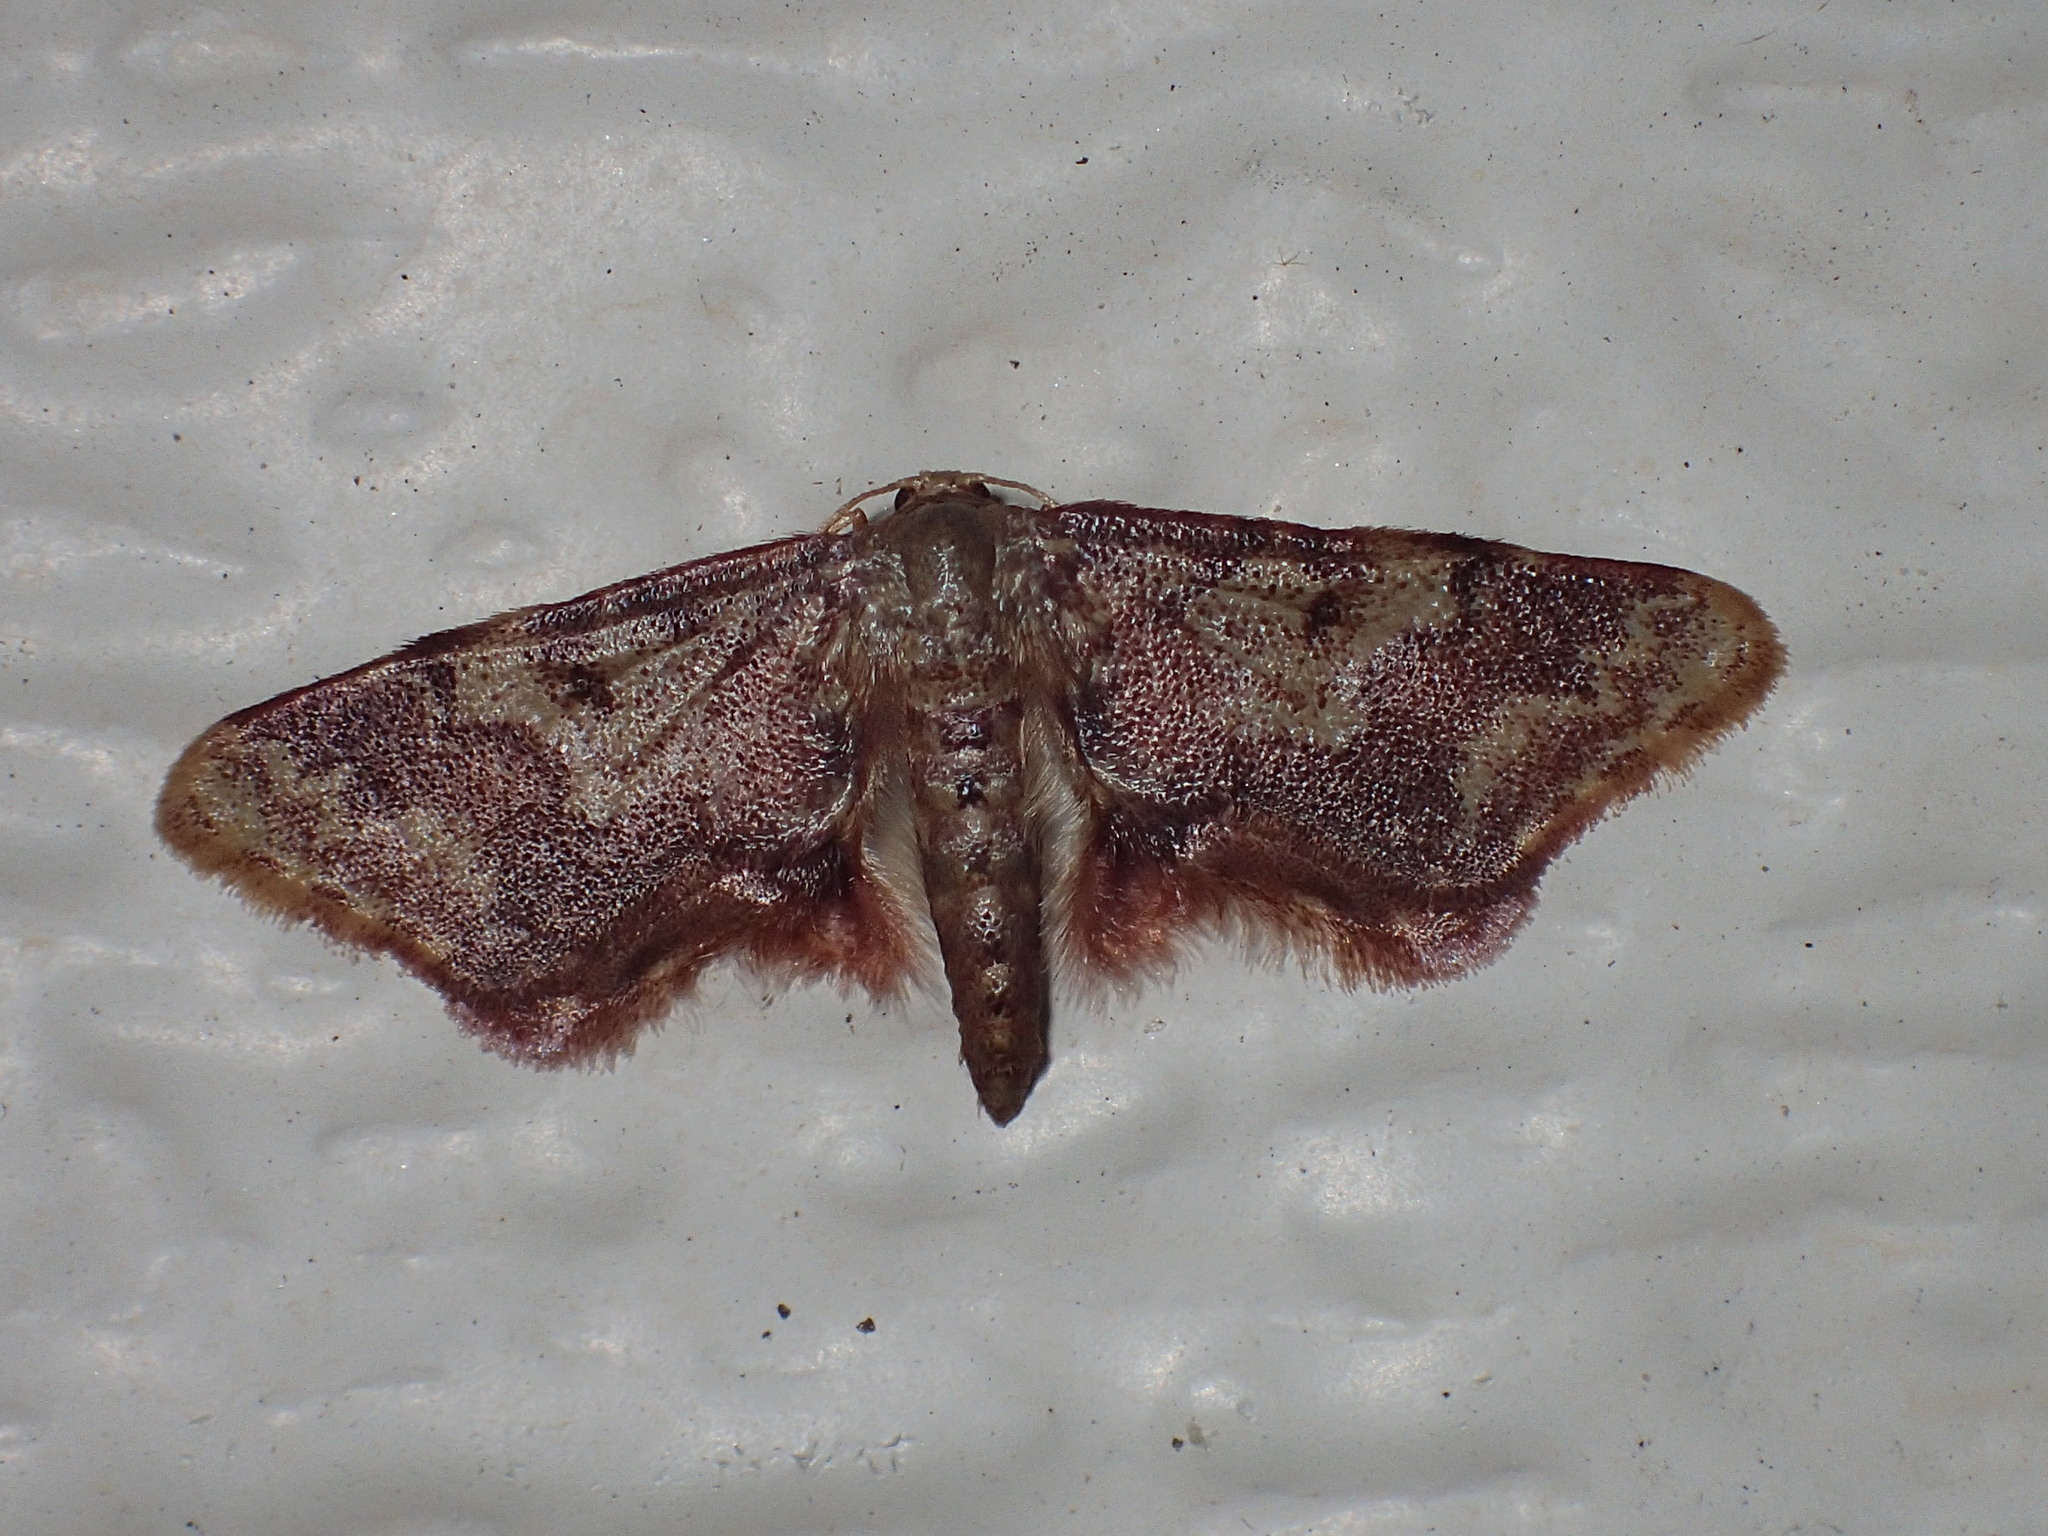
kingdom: Animalia
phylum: Arthropoda
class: Insecta
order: Lepidoptera
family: Geometridae
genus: Idaea
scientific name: Idaea furciferata
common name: Notch-winged wave
